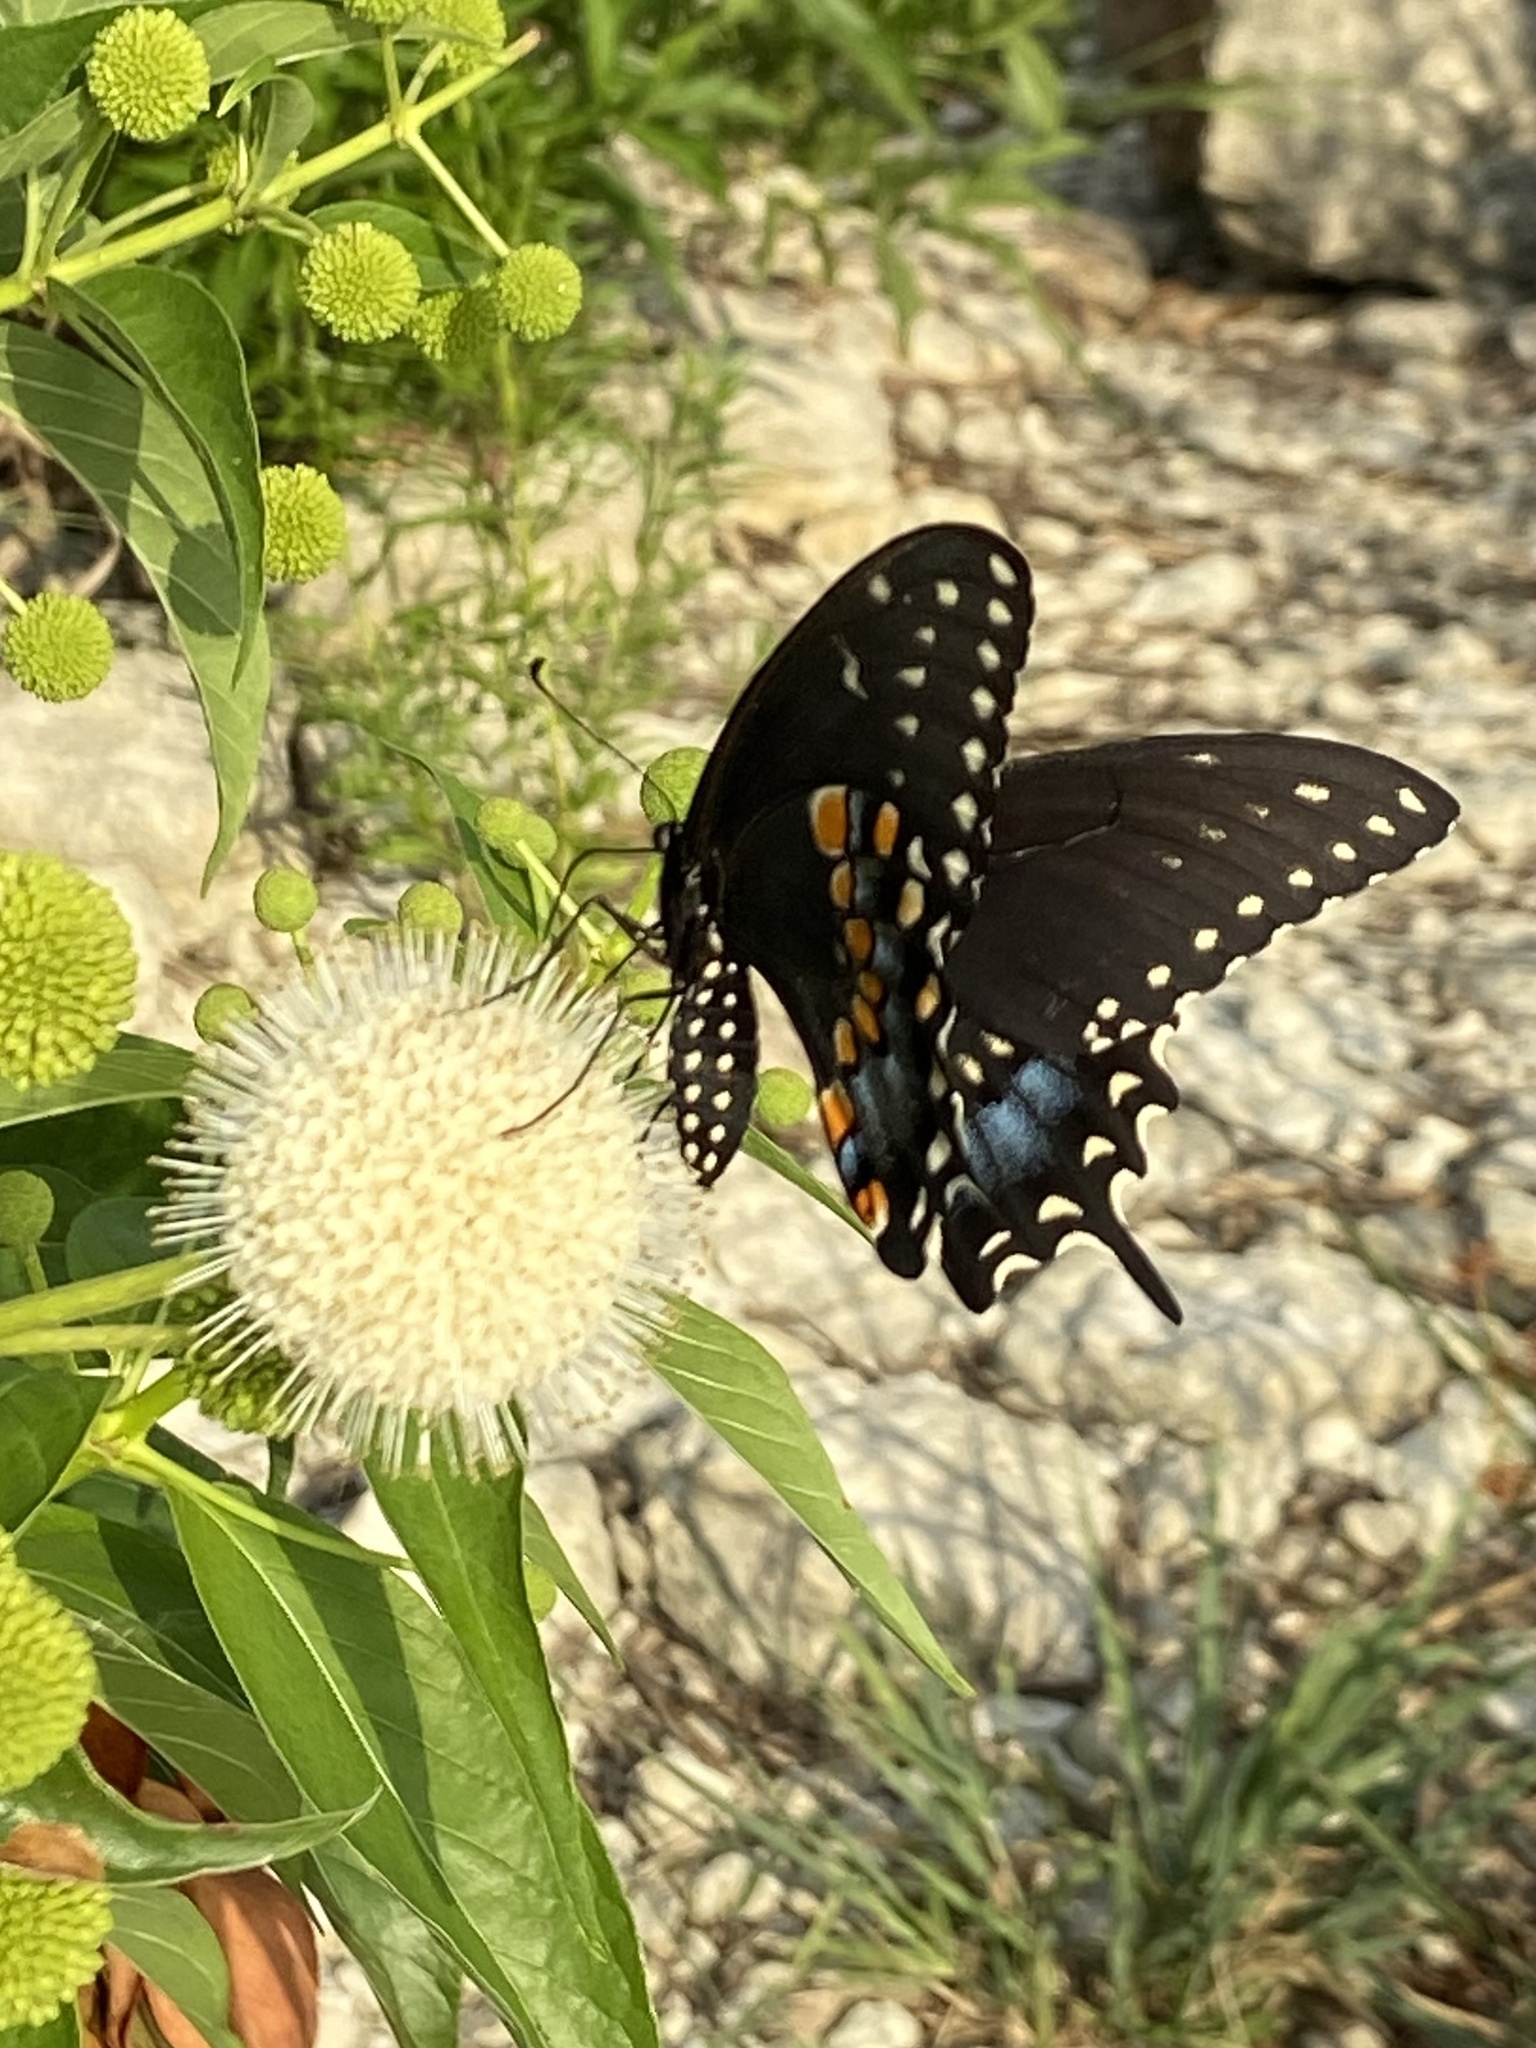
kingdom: Animalia
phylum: Arthropoda
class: Insecta
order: Lepidoptera
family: Papilionidae
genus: Papilio
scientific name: Papilio polyxenes
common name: Black swallowtail
